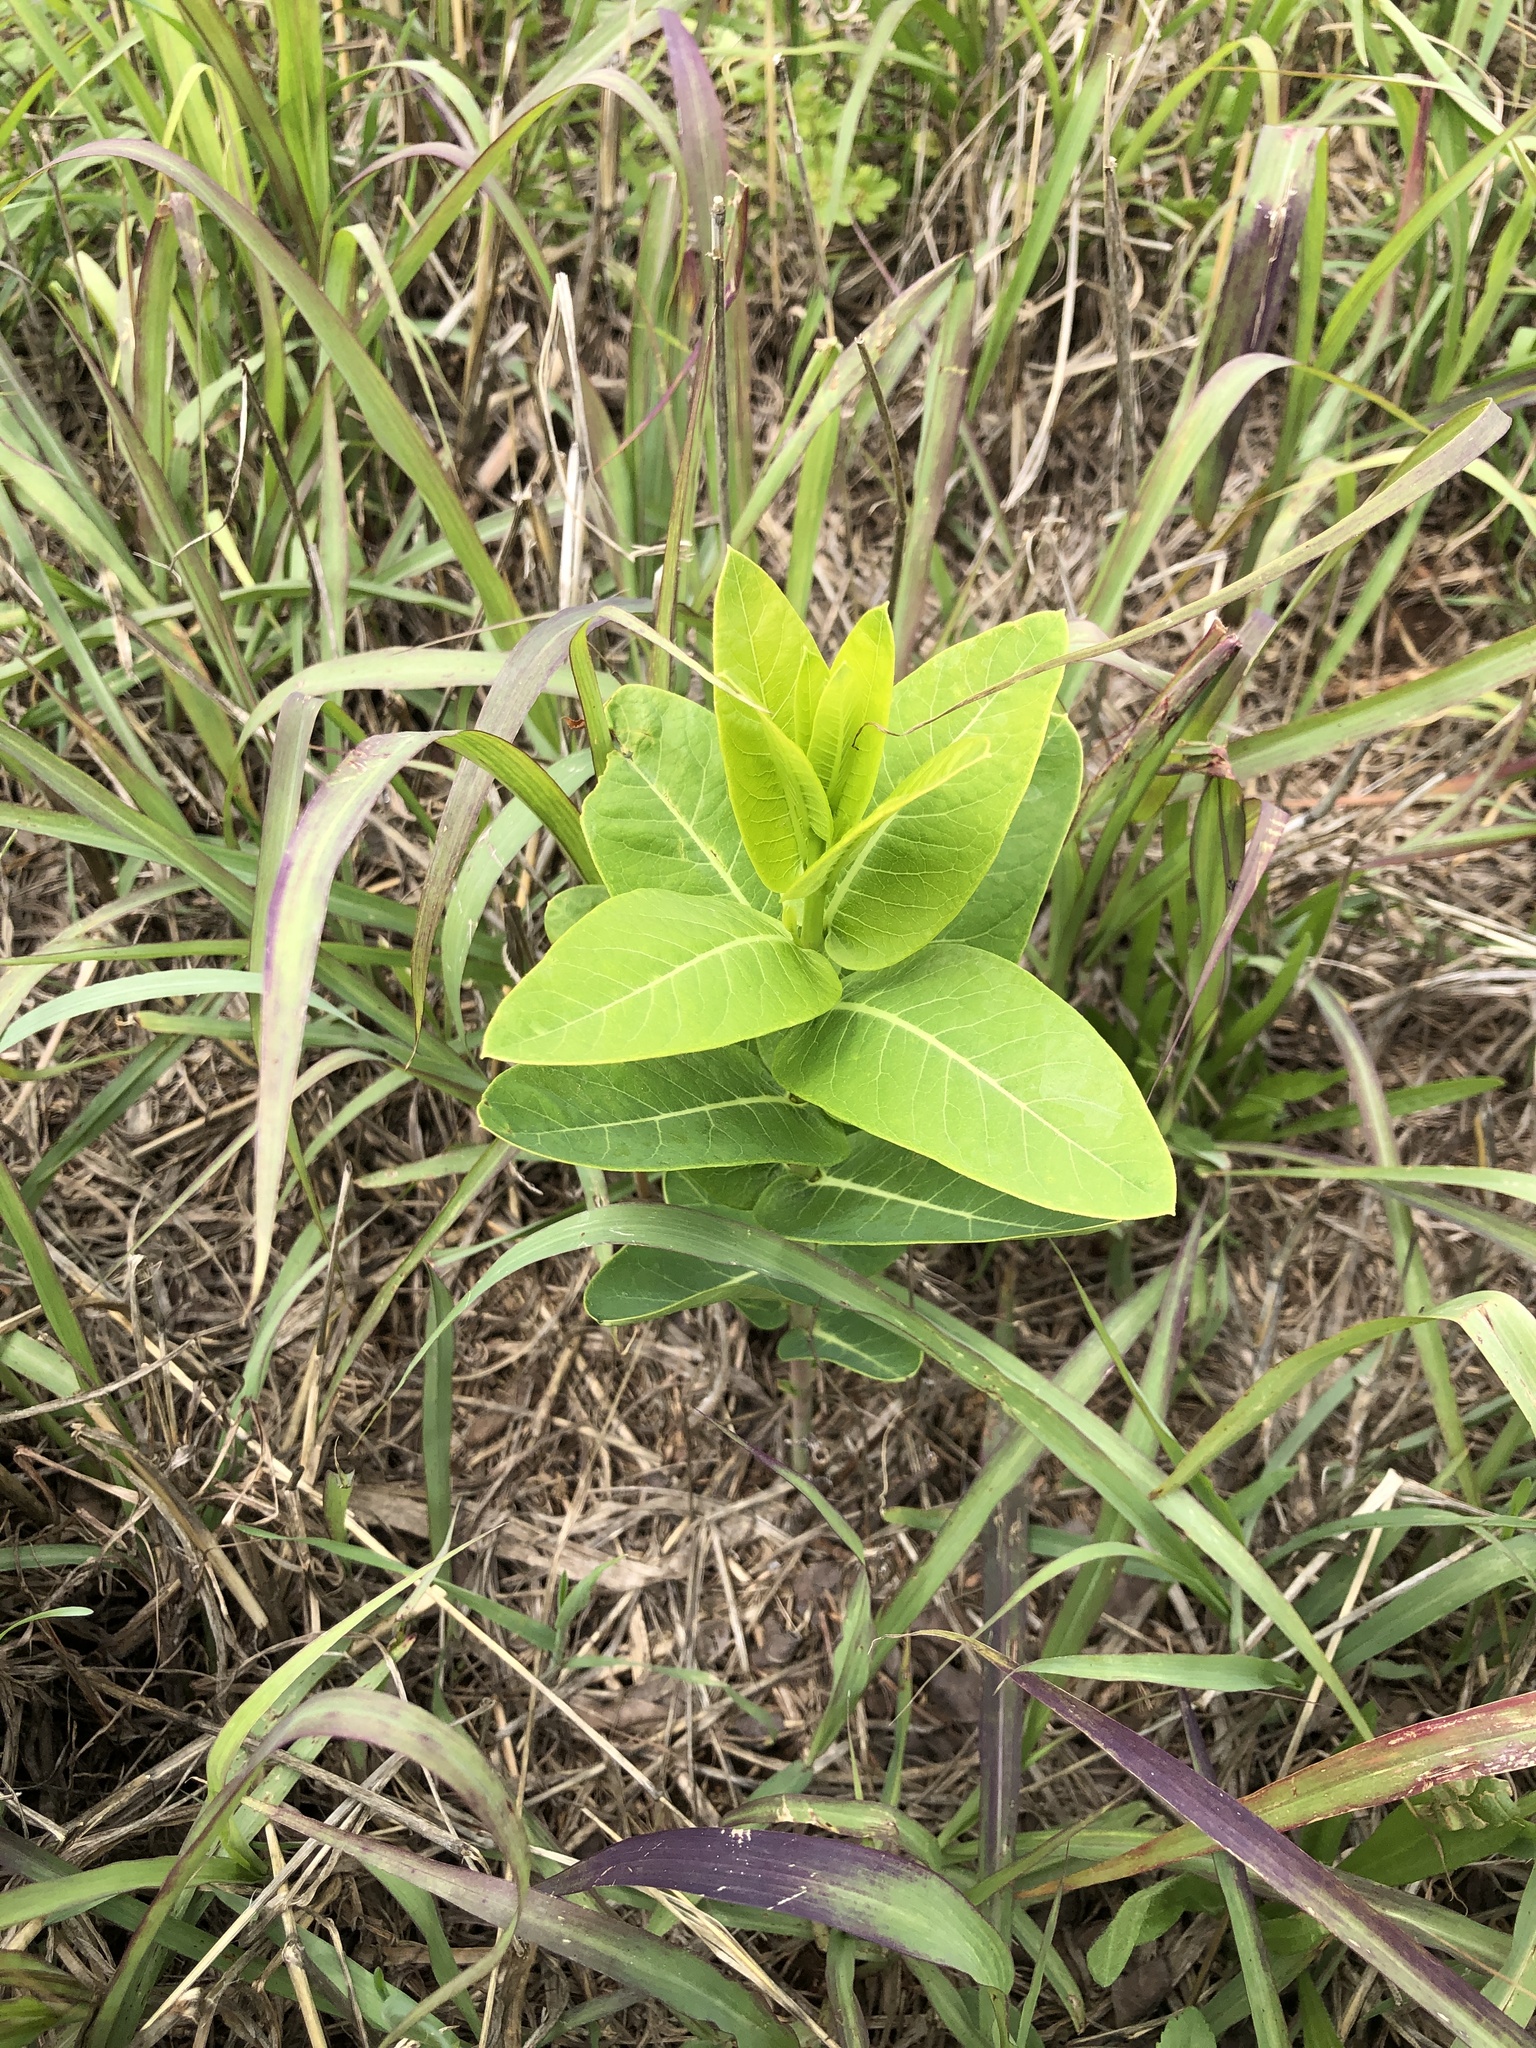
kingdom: Plantae
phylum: Tracheophyta
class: Magnoliopsida
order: Gentianales
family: Apocynaceae
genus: Apocynum
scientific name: Apocynum cannabinum
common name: Hemp dogbane
